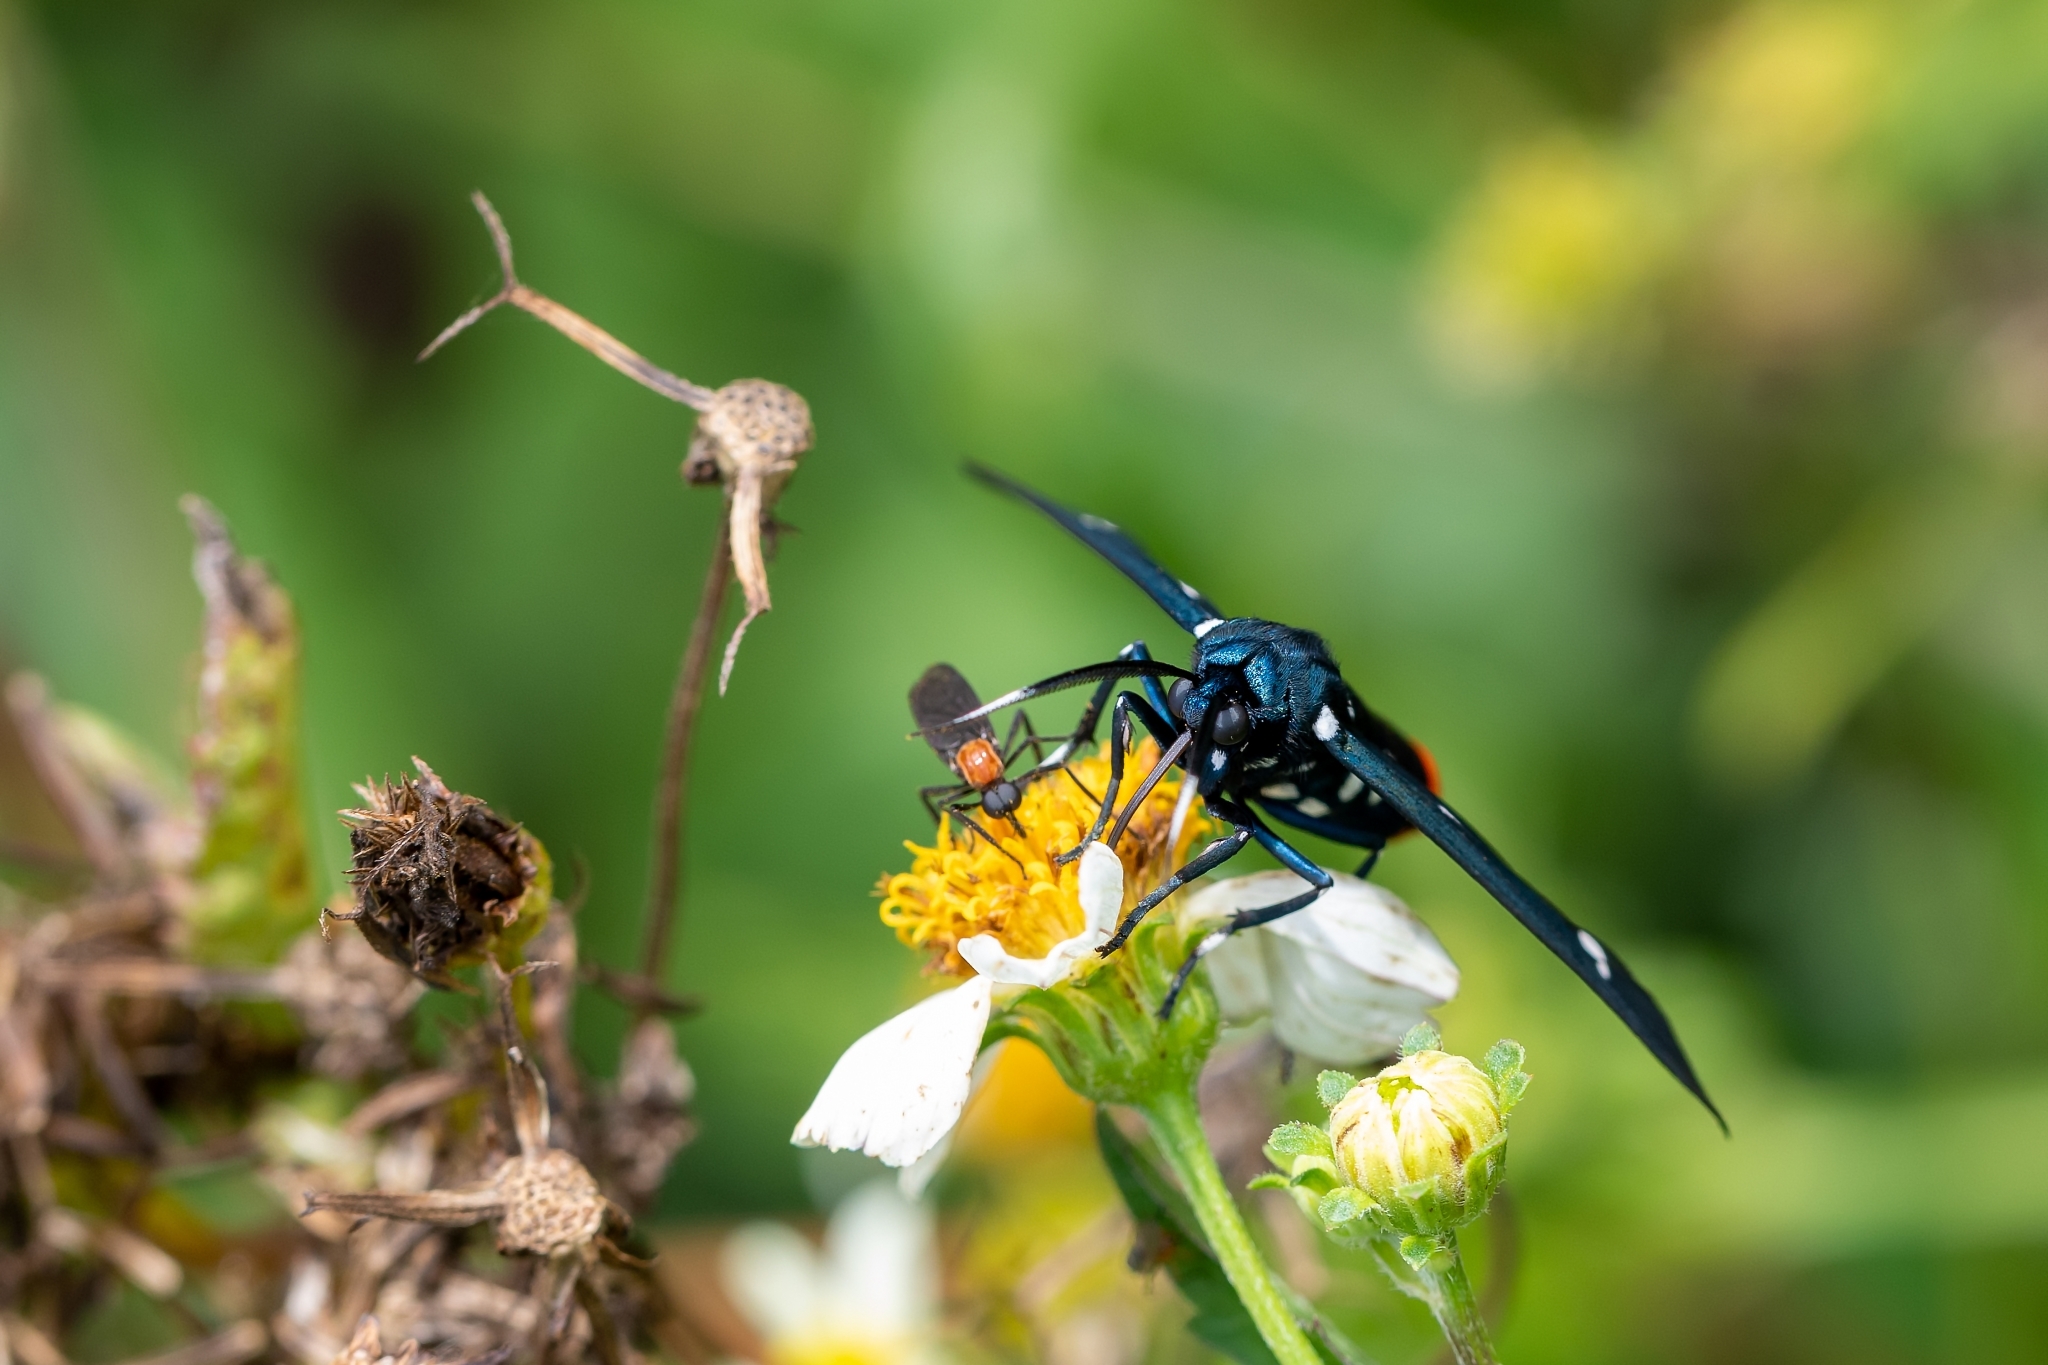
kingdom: Animalia
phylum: Arthropoda
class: Insecta
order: Lepidoptera
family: Erebidae
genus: Syntomeida
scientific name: Syntomeida epilais
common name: Polka-dot wasp moth
